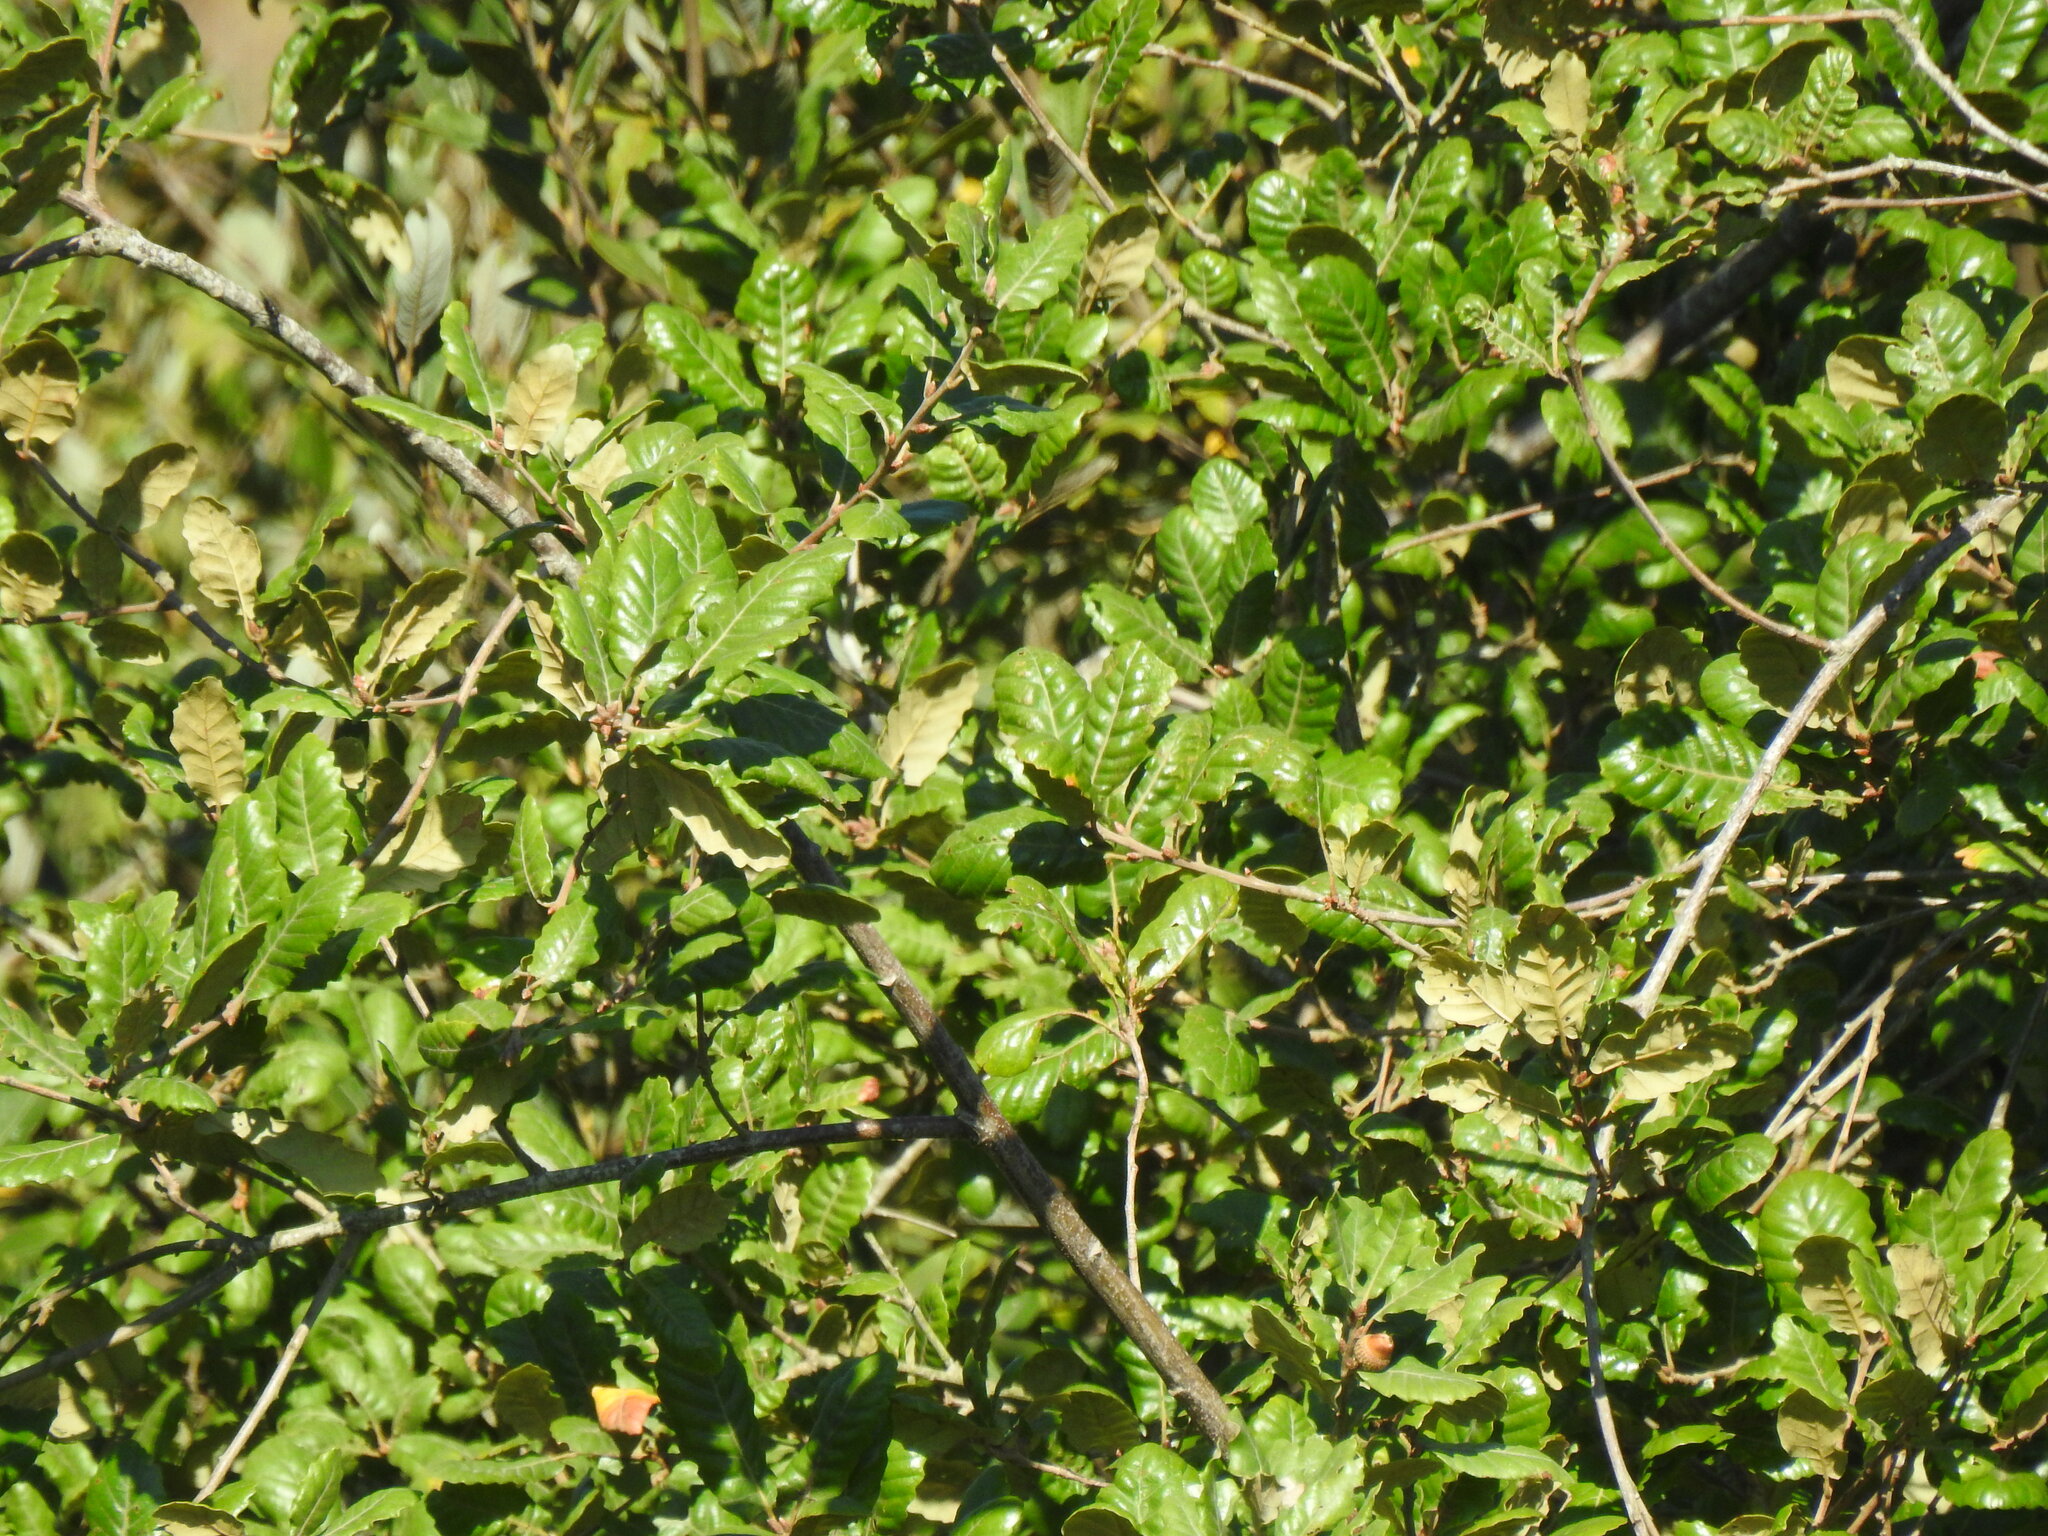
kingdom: Plantae
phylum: Tracheophyta
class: Magnoliopsida
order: Fagales
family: Fagaceae
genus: Quercus
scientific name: Quercus faginea
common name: Gall oak tree
